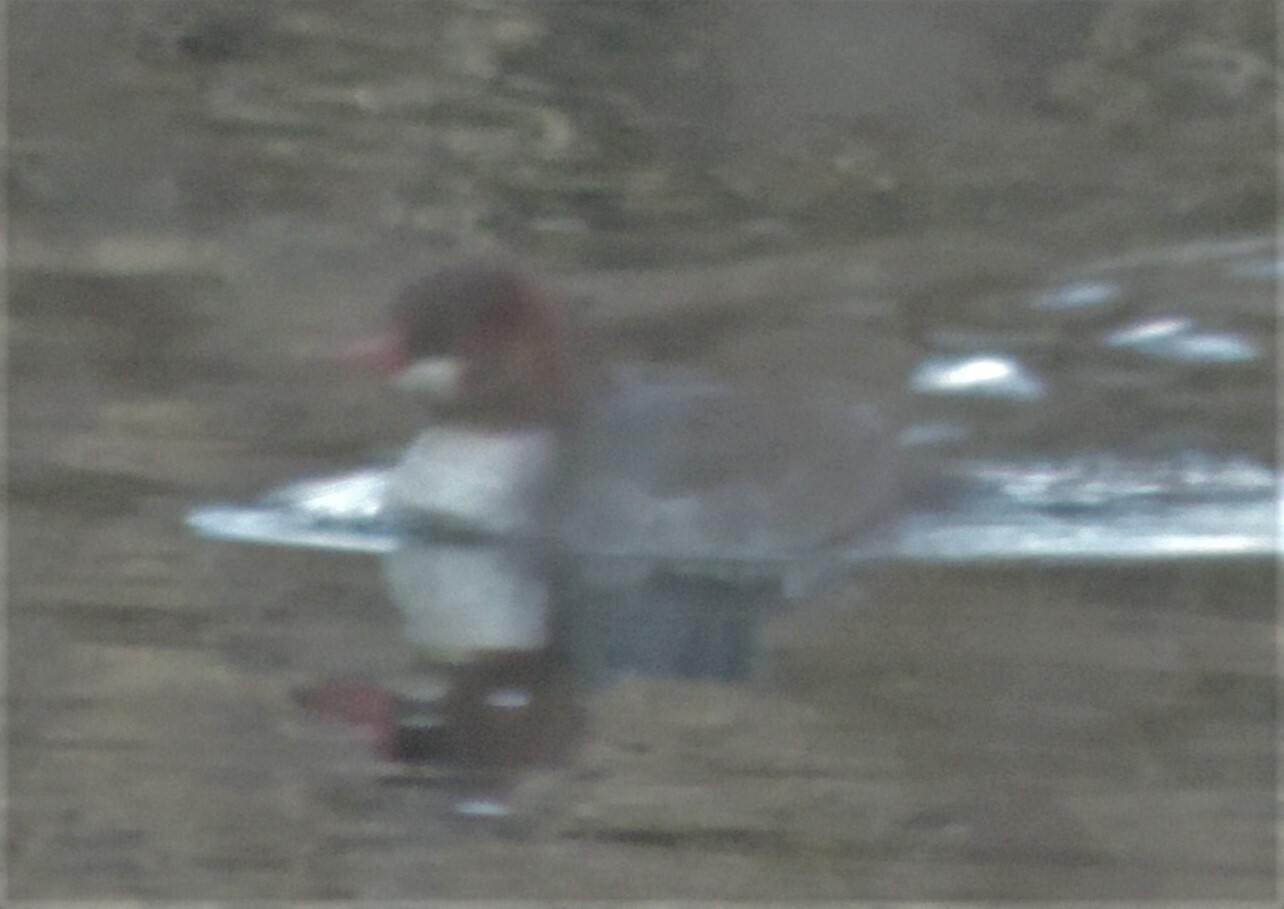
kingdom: Animalia
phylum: Chordata
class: Aves
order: Anseriformes
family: Anatidae
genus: Mergus
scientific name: Mergus merganser
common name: Common merganser
